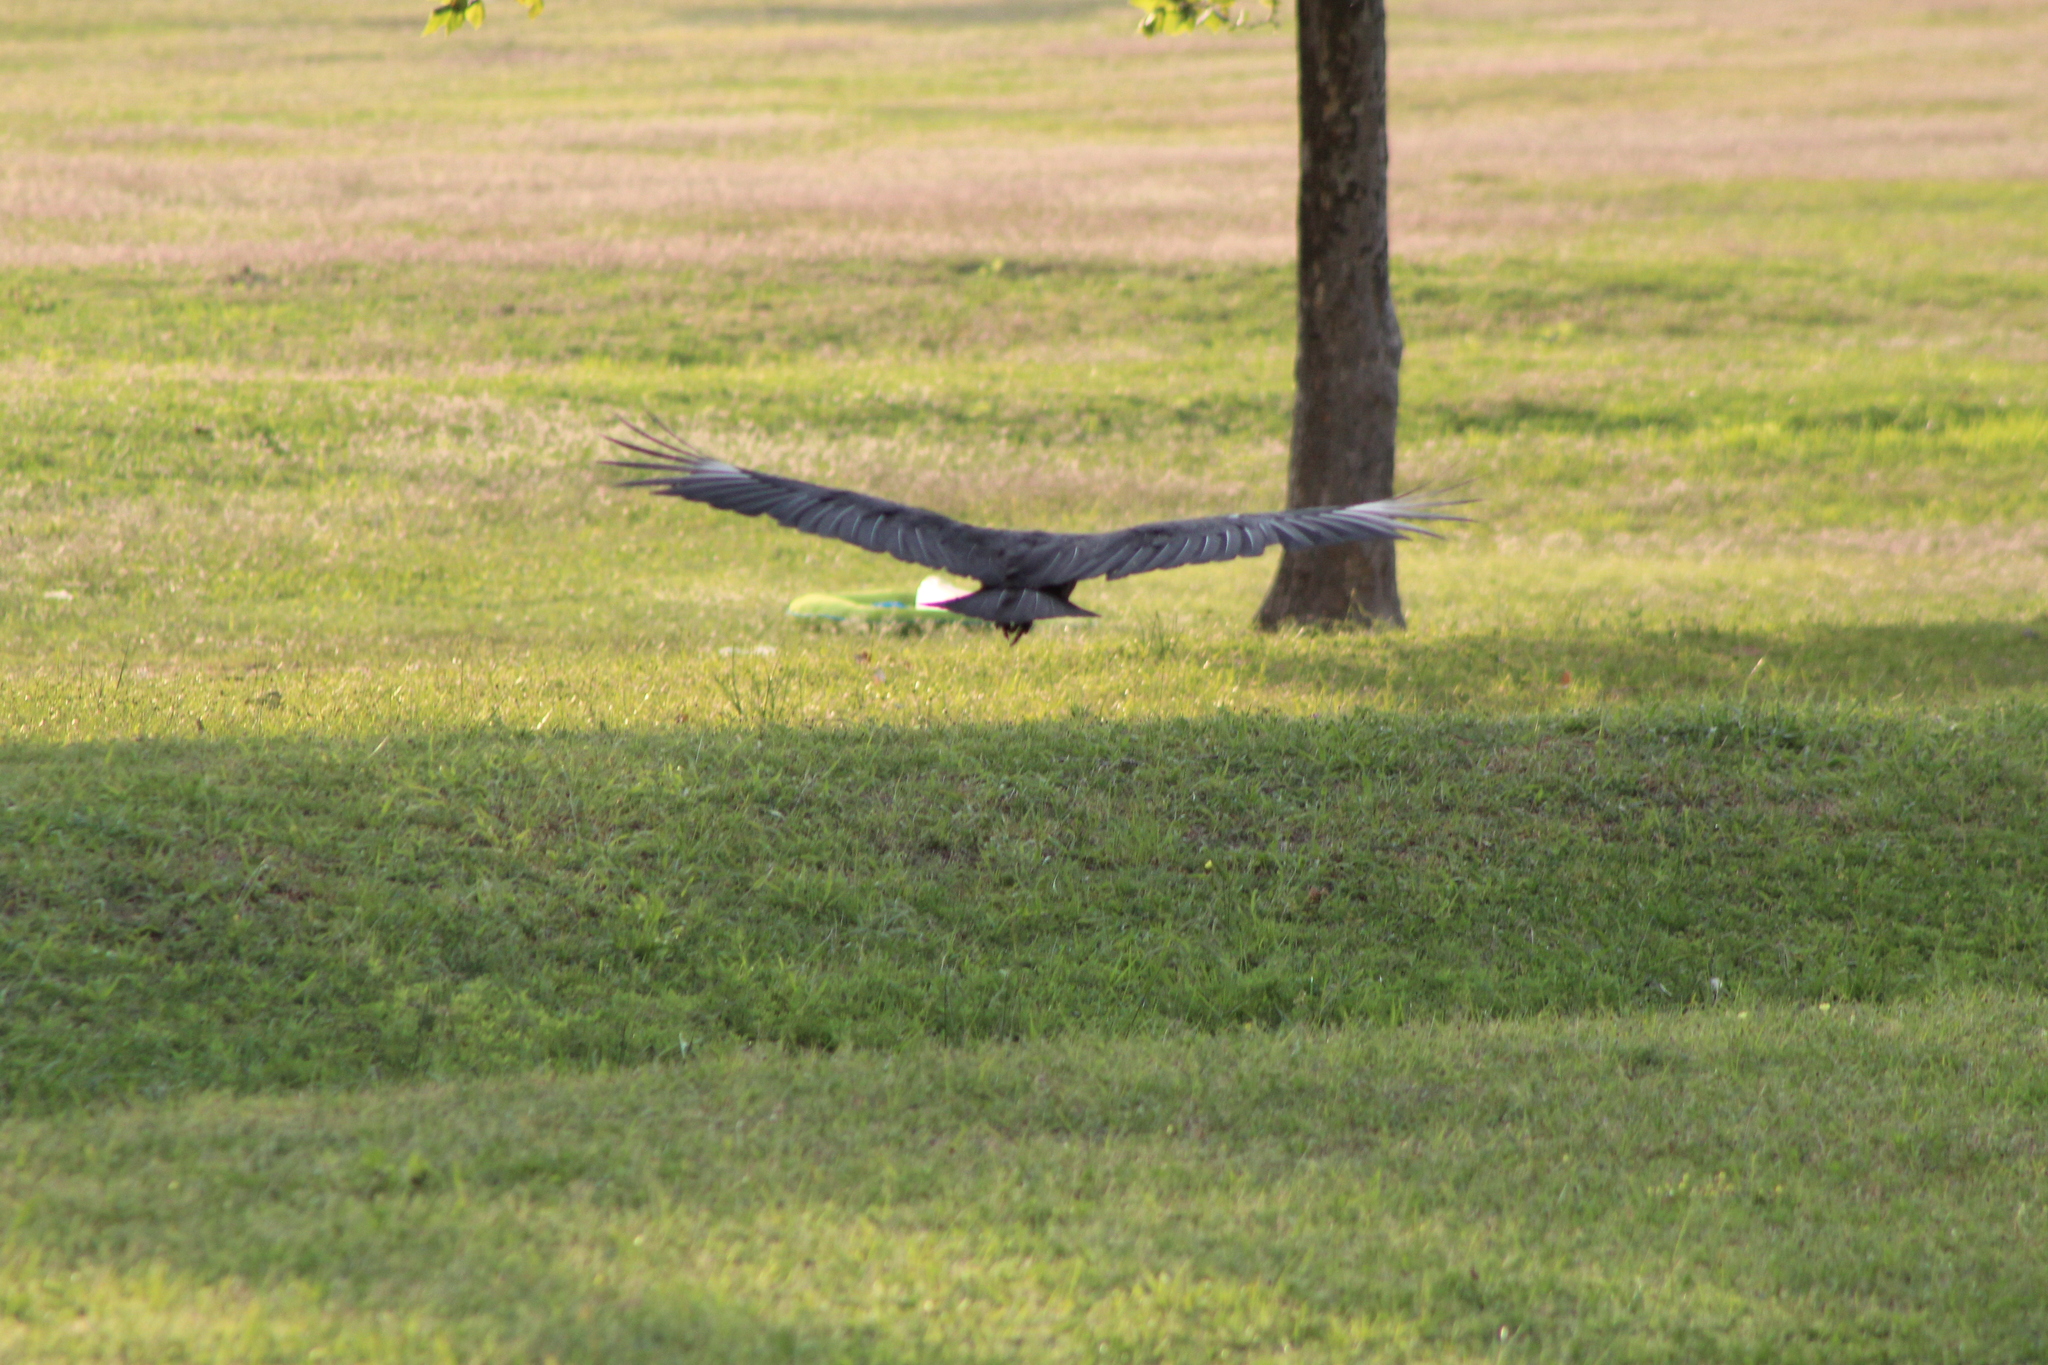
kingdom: Animalia
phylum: Chordata
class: Aves
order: Accipitriformes
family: Cathartidae
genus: Coragyps
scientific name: Coragyps atratus
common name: Black vulture
